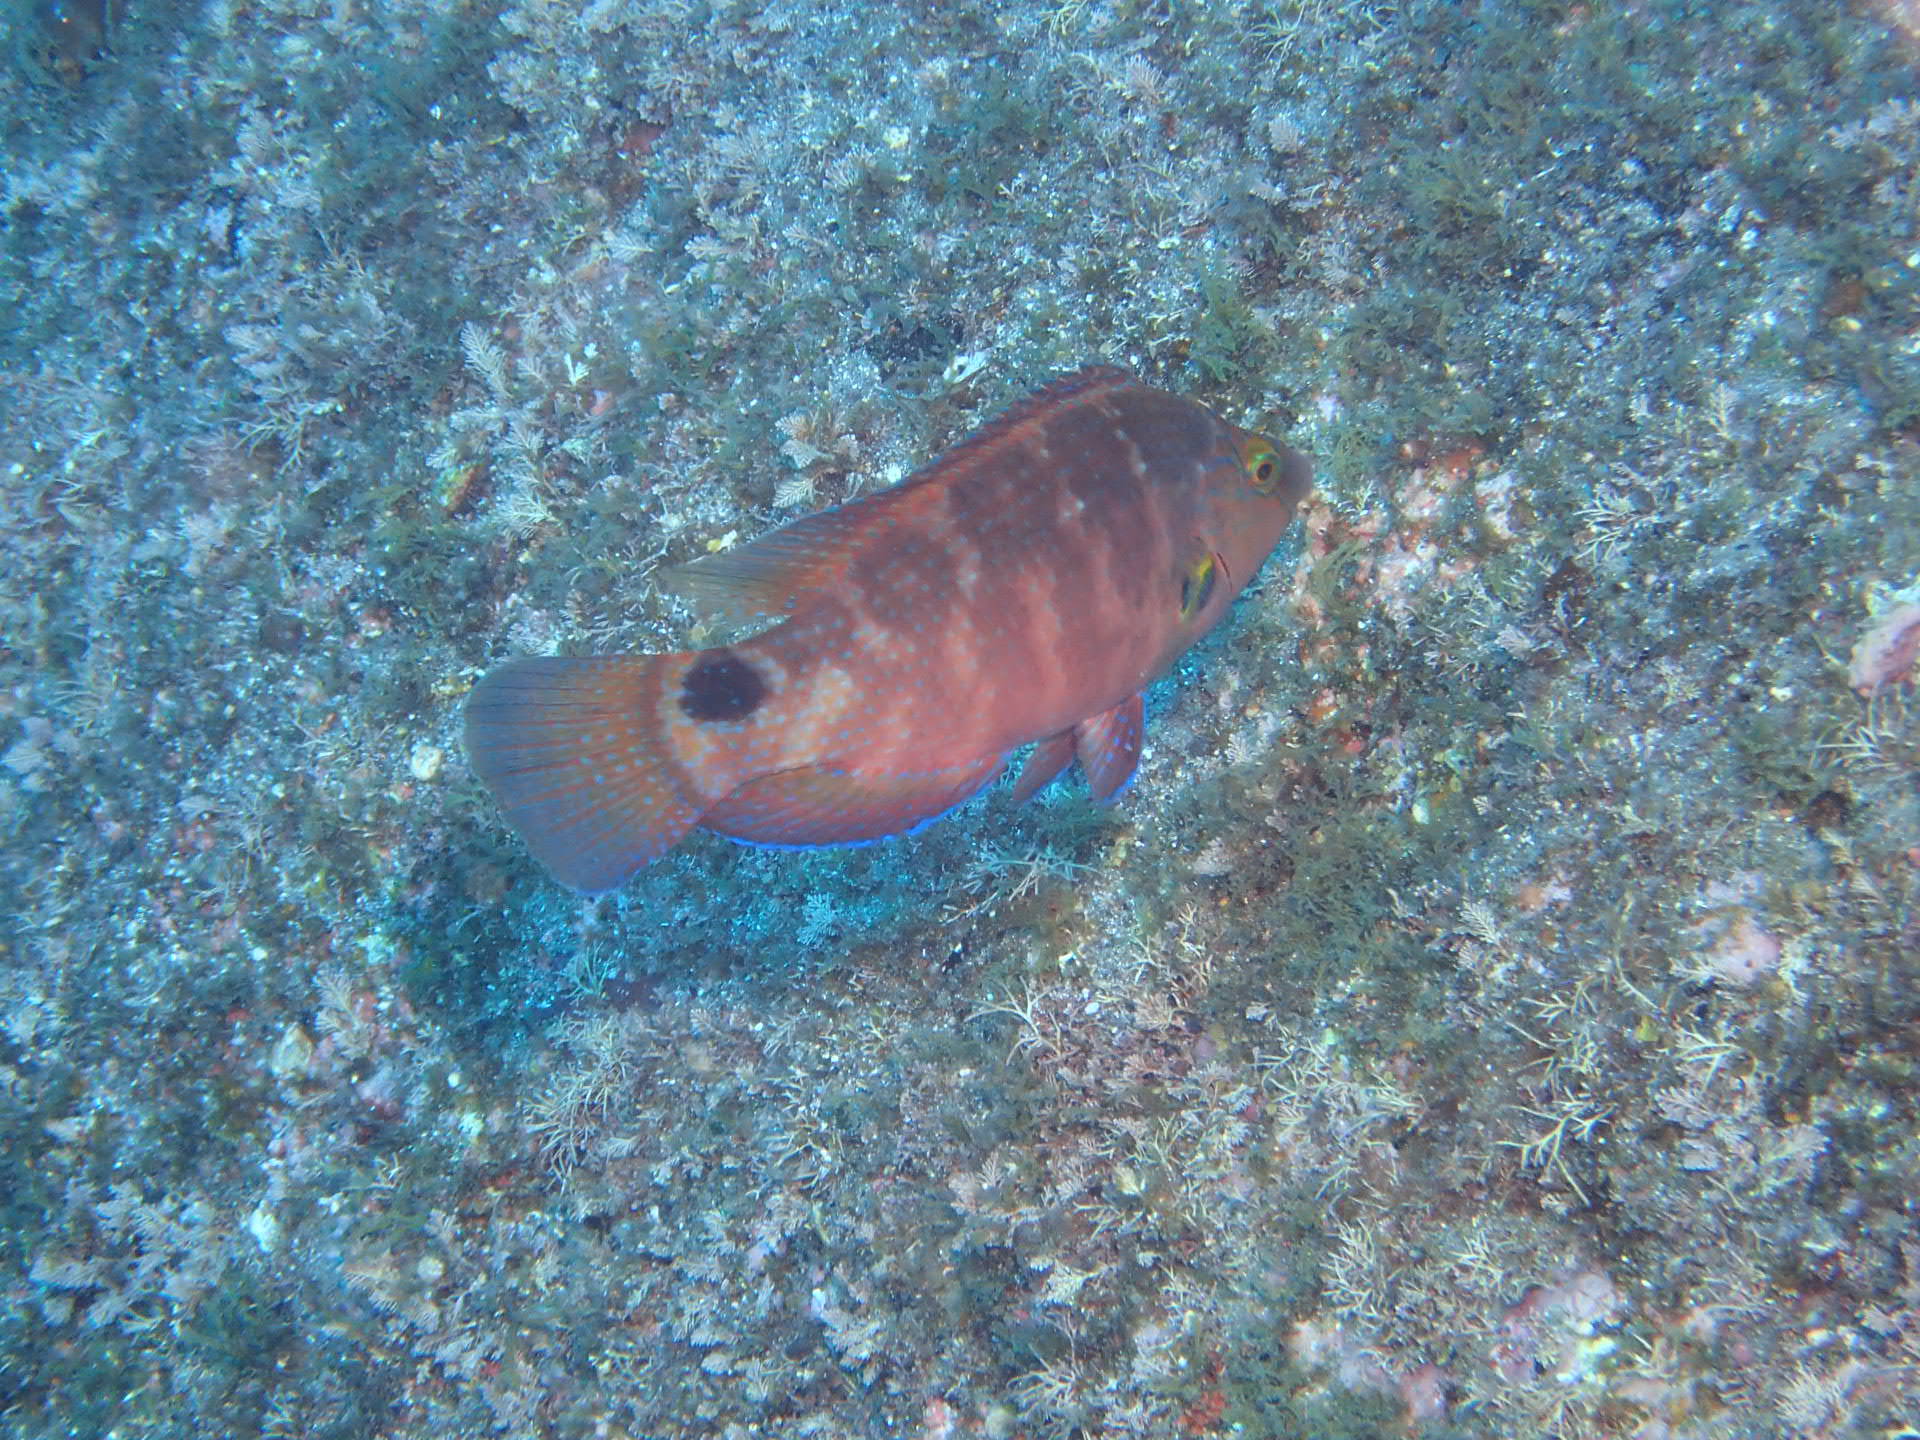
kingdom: Animalia
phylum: Chordata
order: Perciformes
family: Labridae
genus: Symphodus
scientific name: Symphodus mediterraneus
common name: Axillary wrasse
